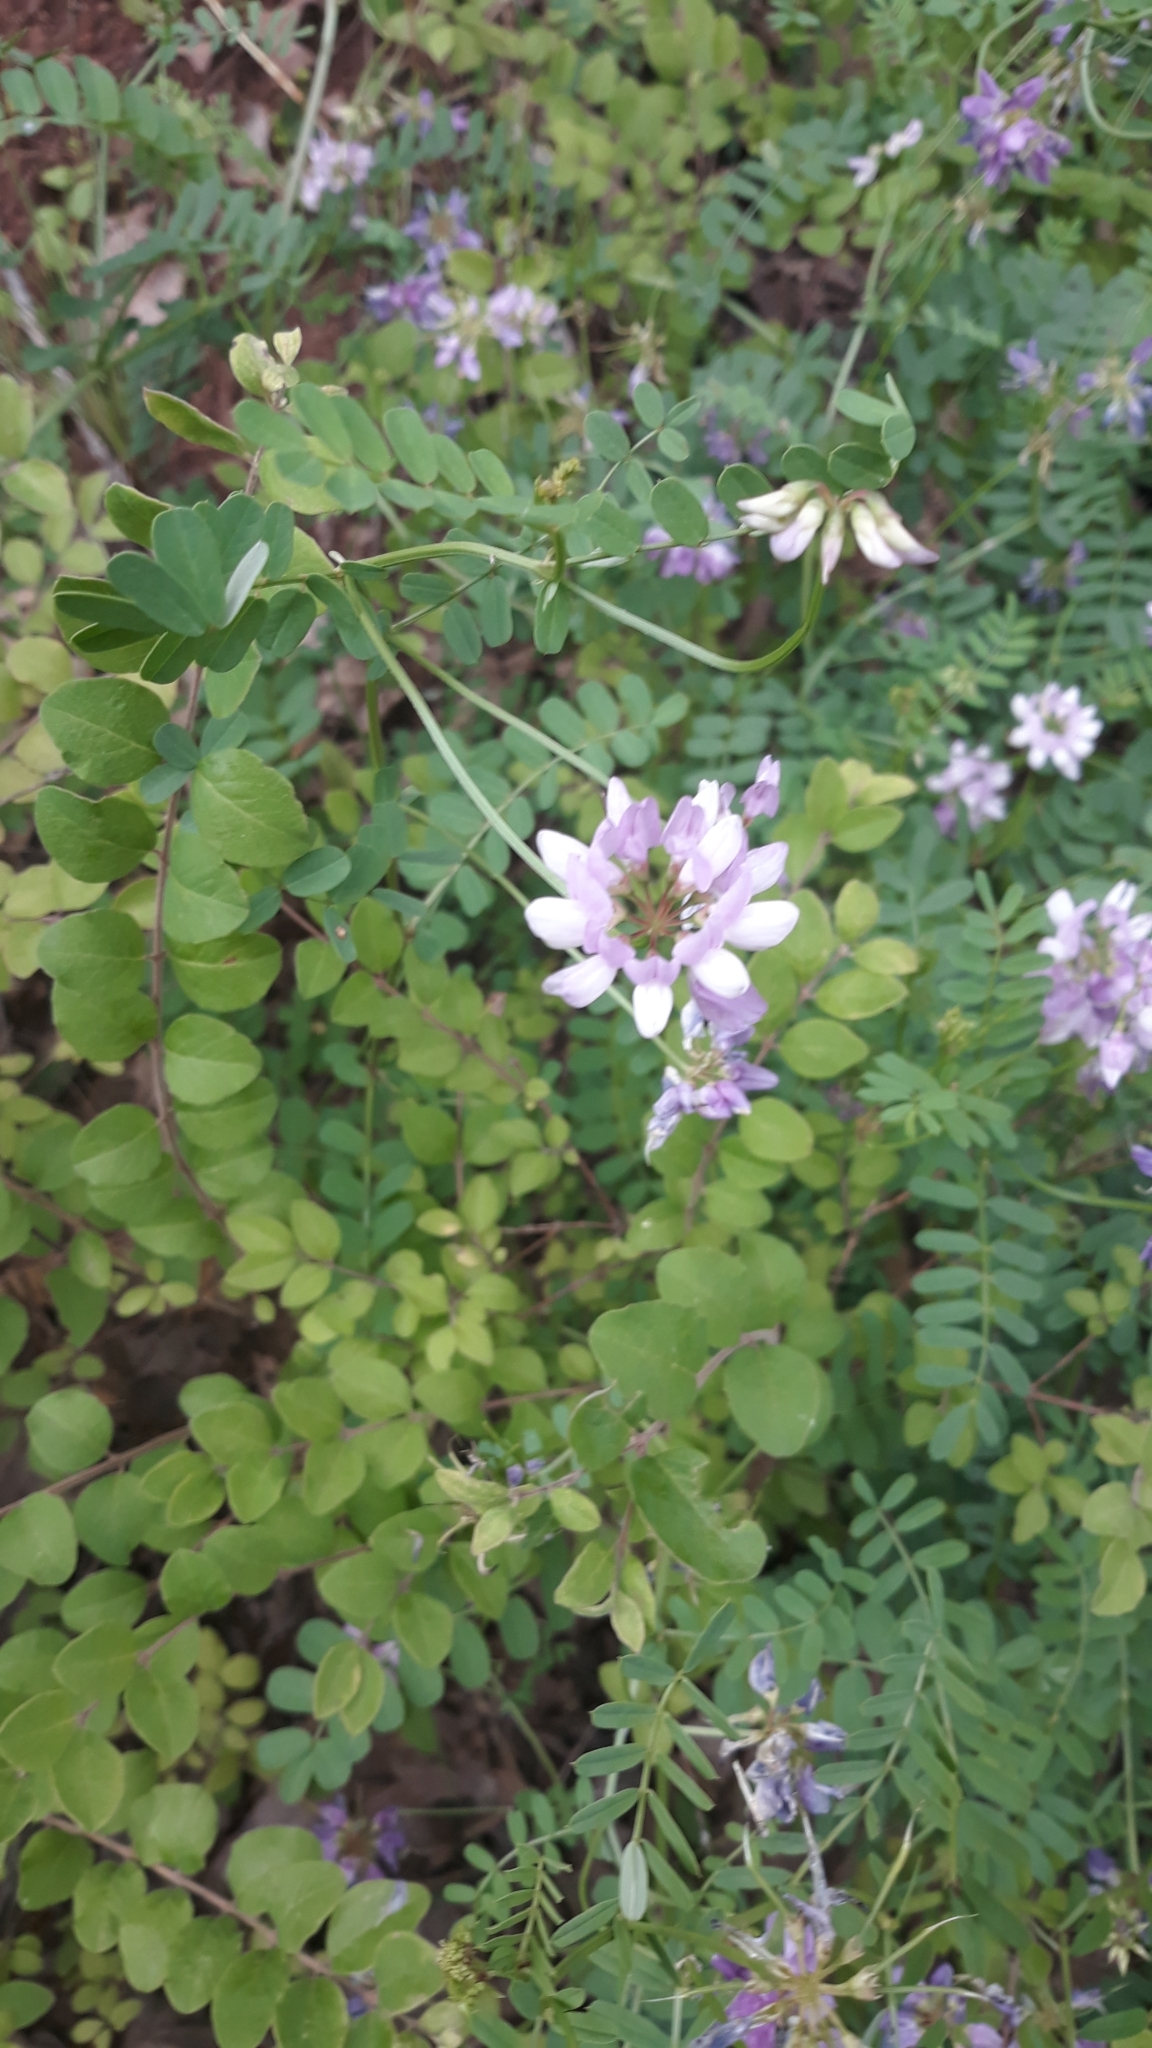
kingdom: Plantae
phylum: Tracheophyta
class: Magnoliopsida
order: Fabales
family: Fabaceae
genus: Coronilla
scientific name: Coronilla varia
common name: Crownvetch
